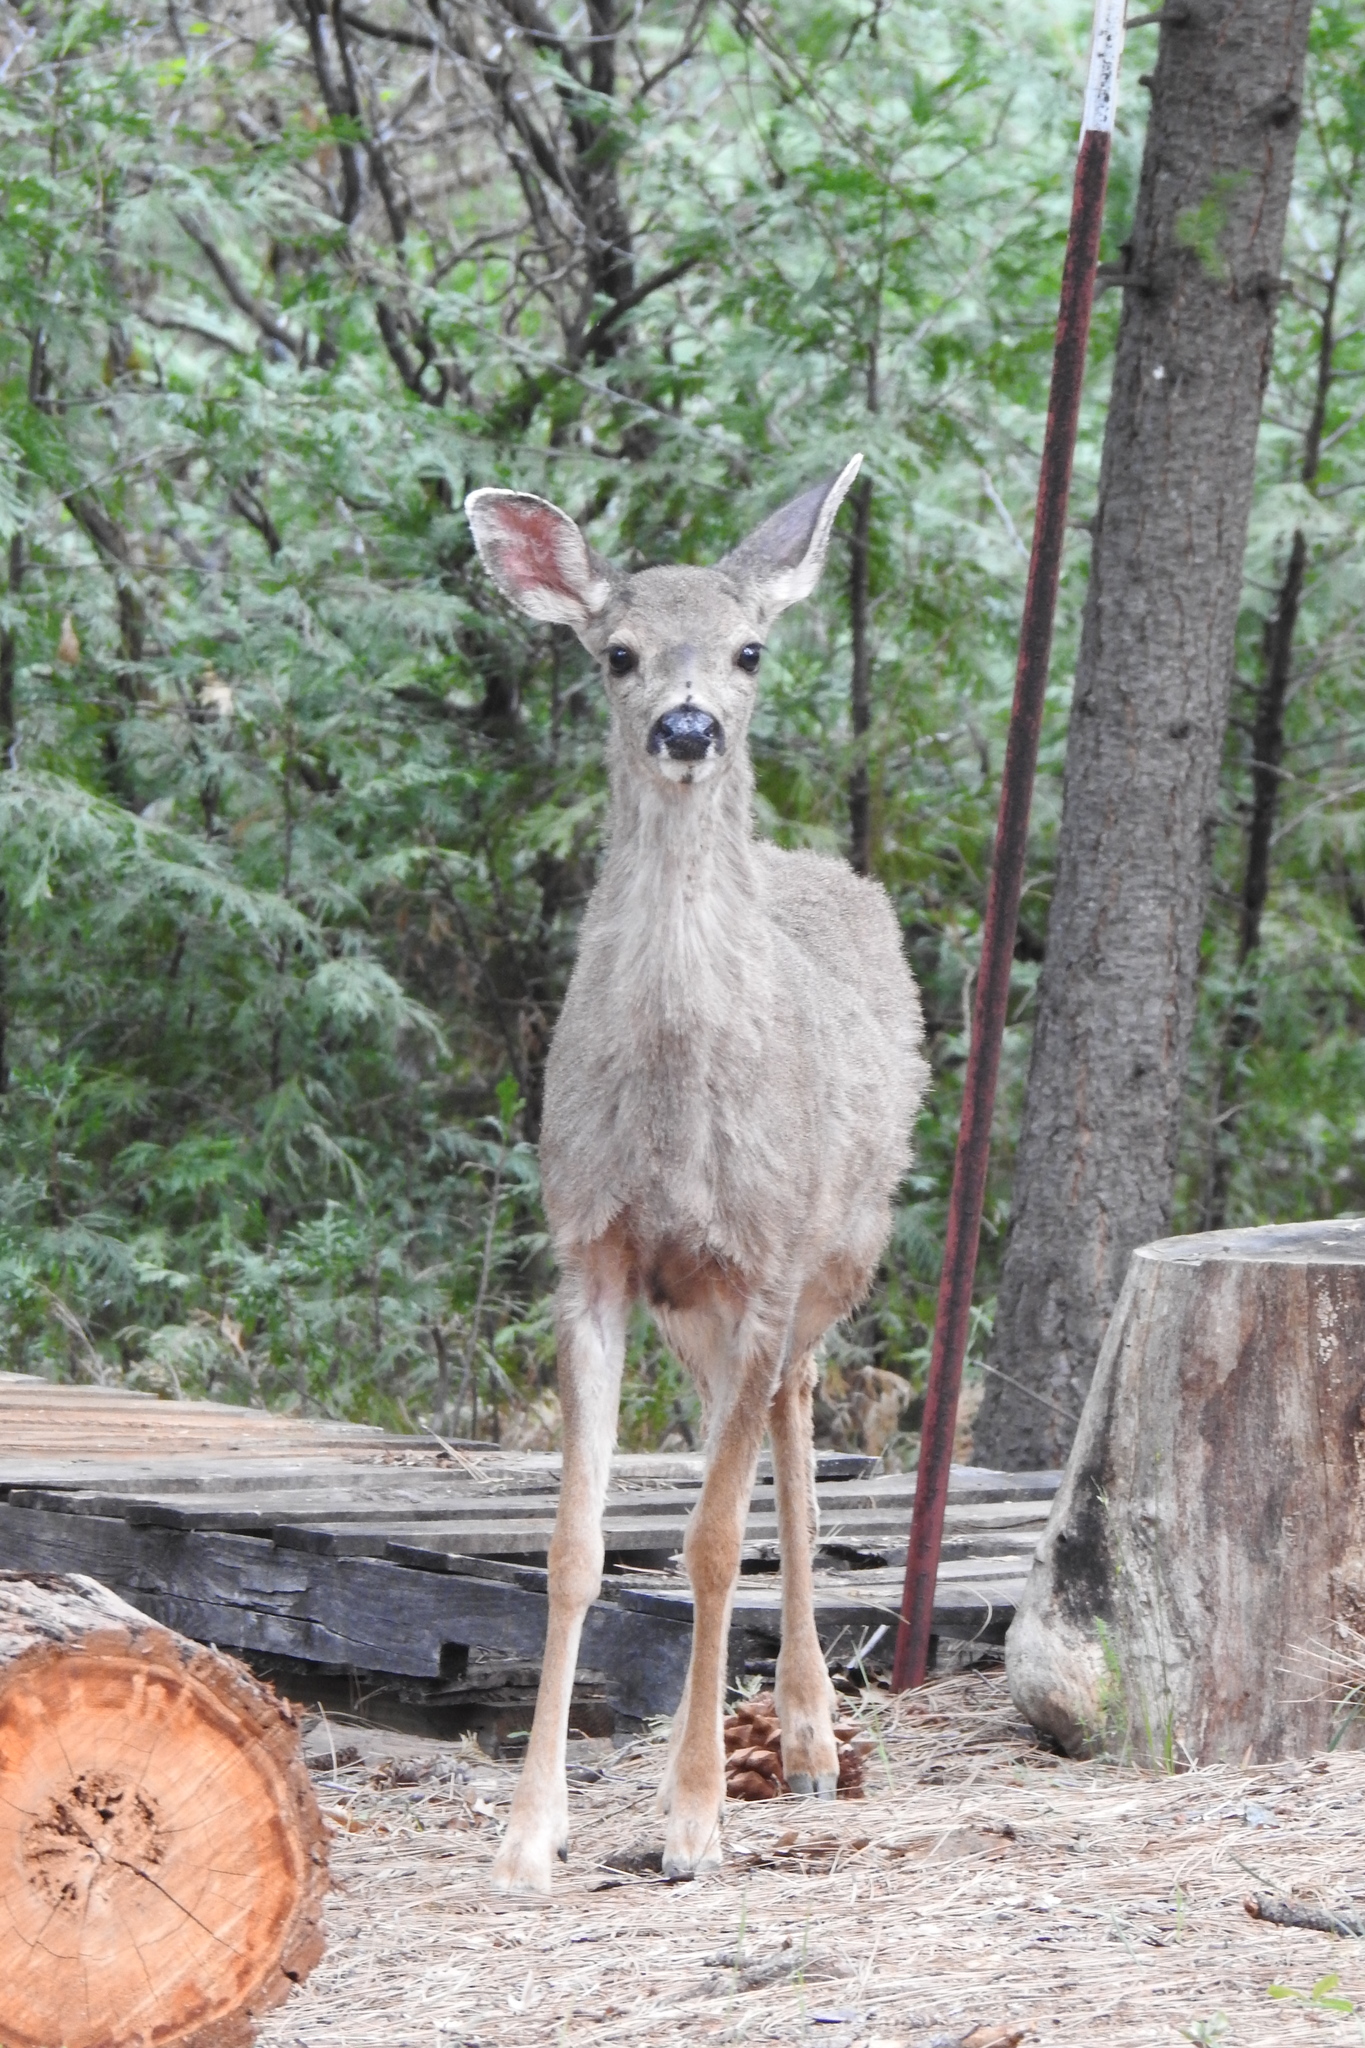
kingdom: Animalia
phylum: Chordata
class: Mammalia
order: Artiodactyla
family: Cervidae
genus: Odocoileus
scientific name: Odocoileus hemionus
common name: Mule deer
